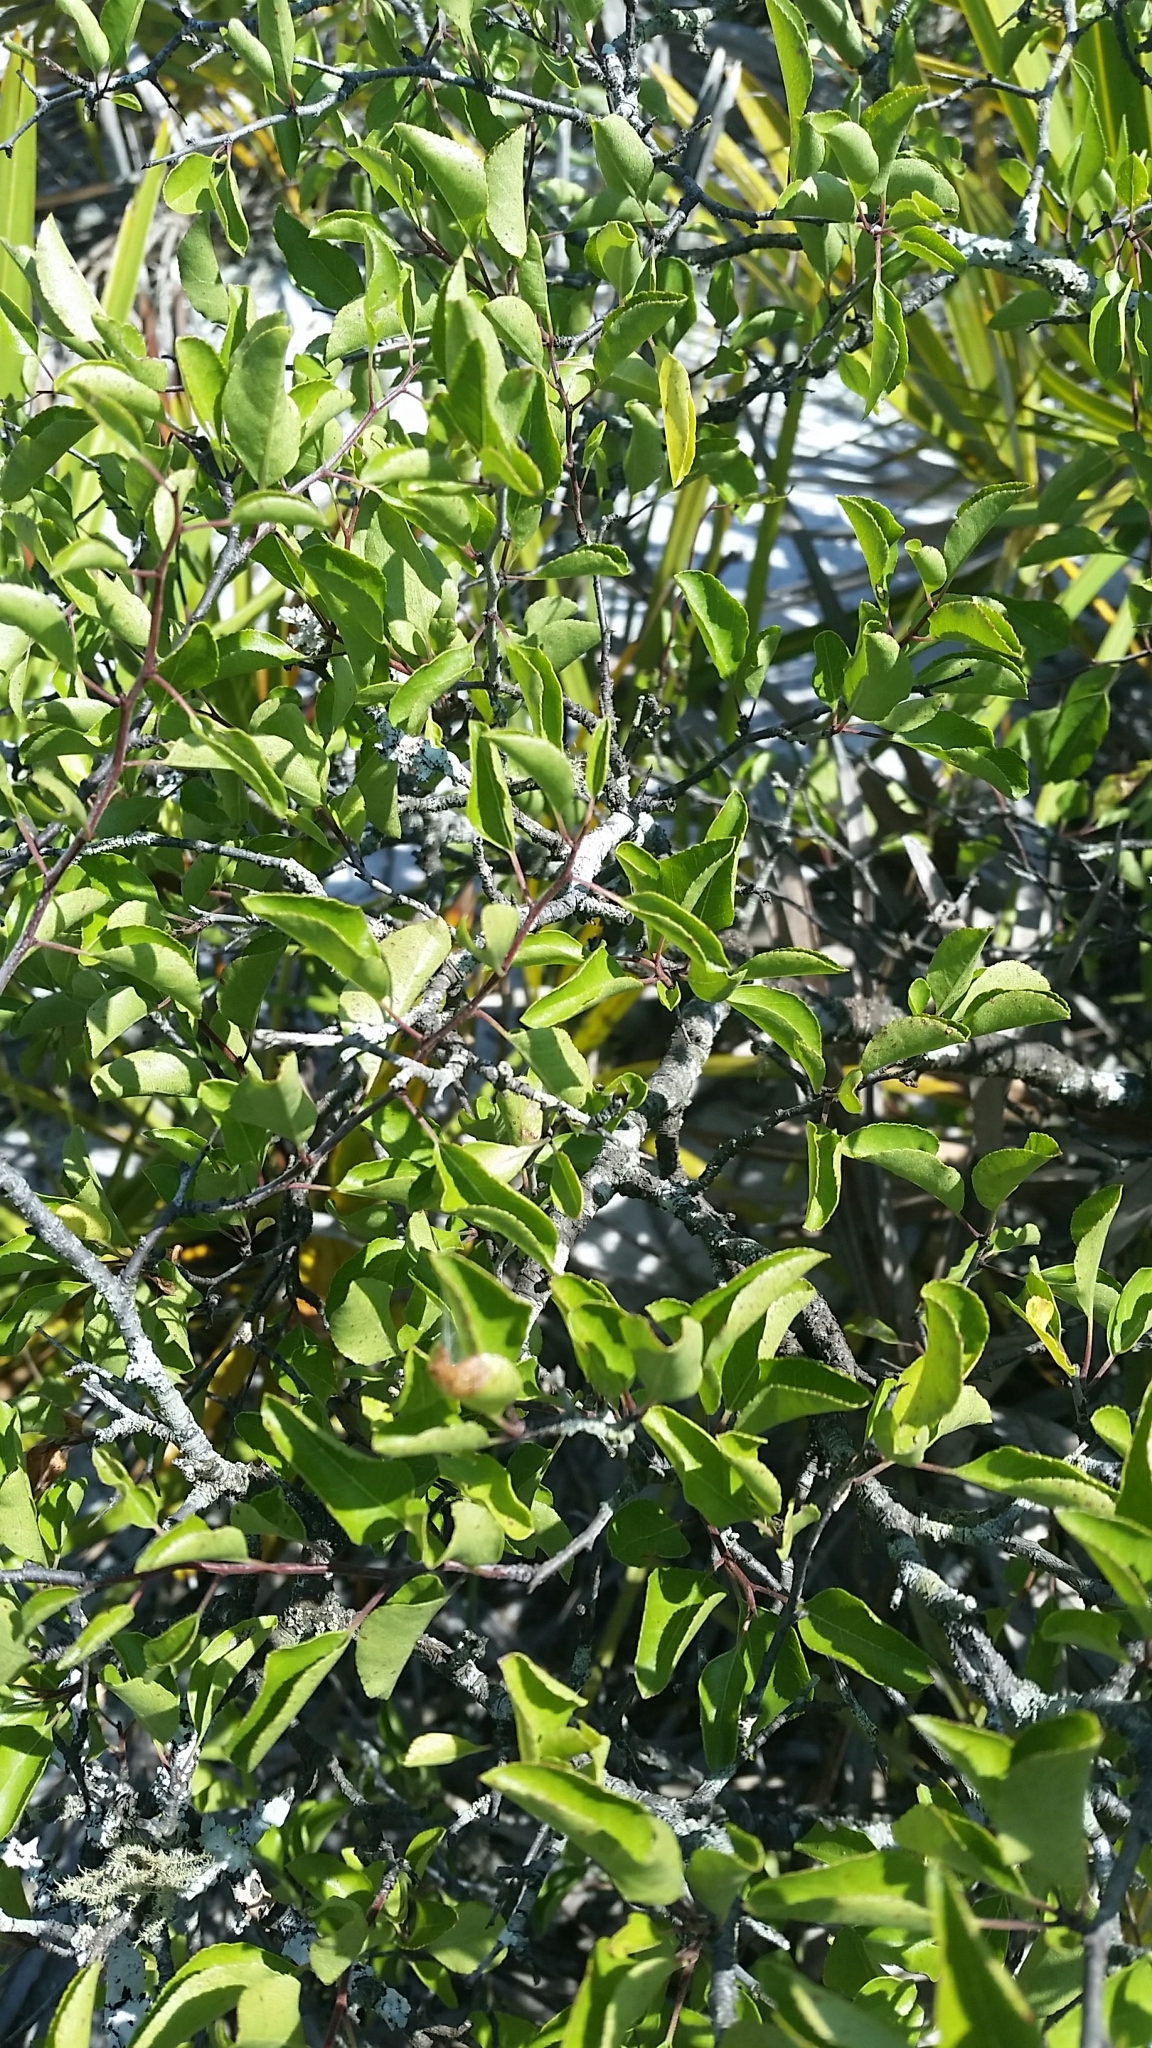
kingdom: Plantae
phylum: Tracheophyta
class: Magnoliopsida
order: Rosales
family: Rosaceae
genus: Prunus
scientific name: Prunus geniculata
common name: Scrub plum
